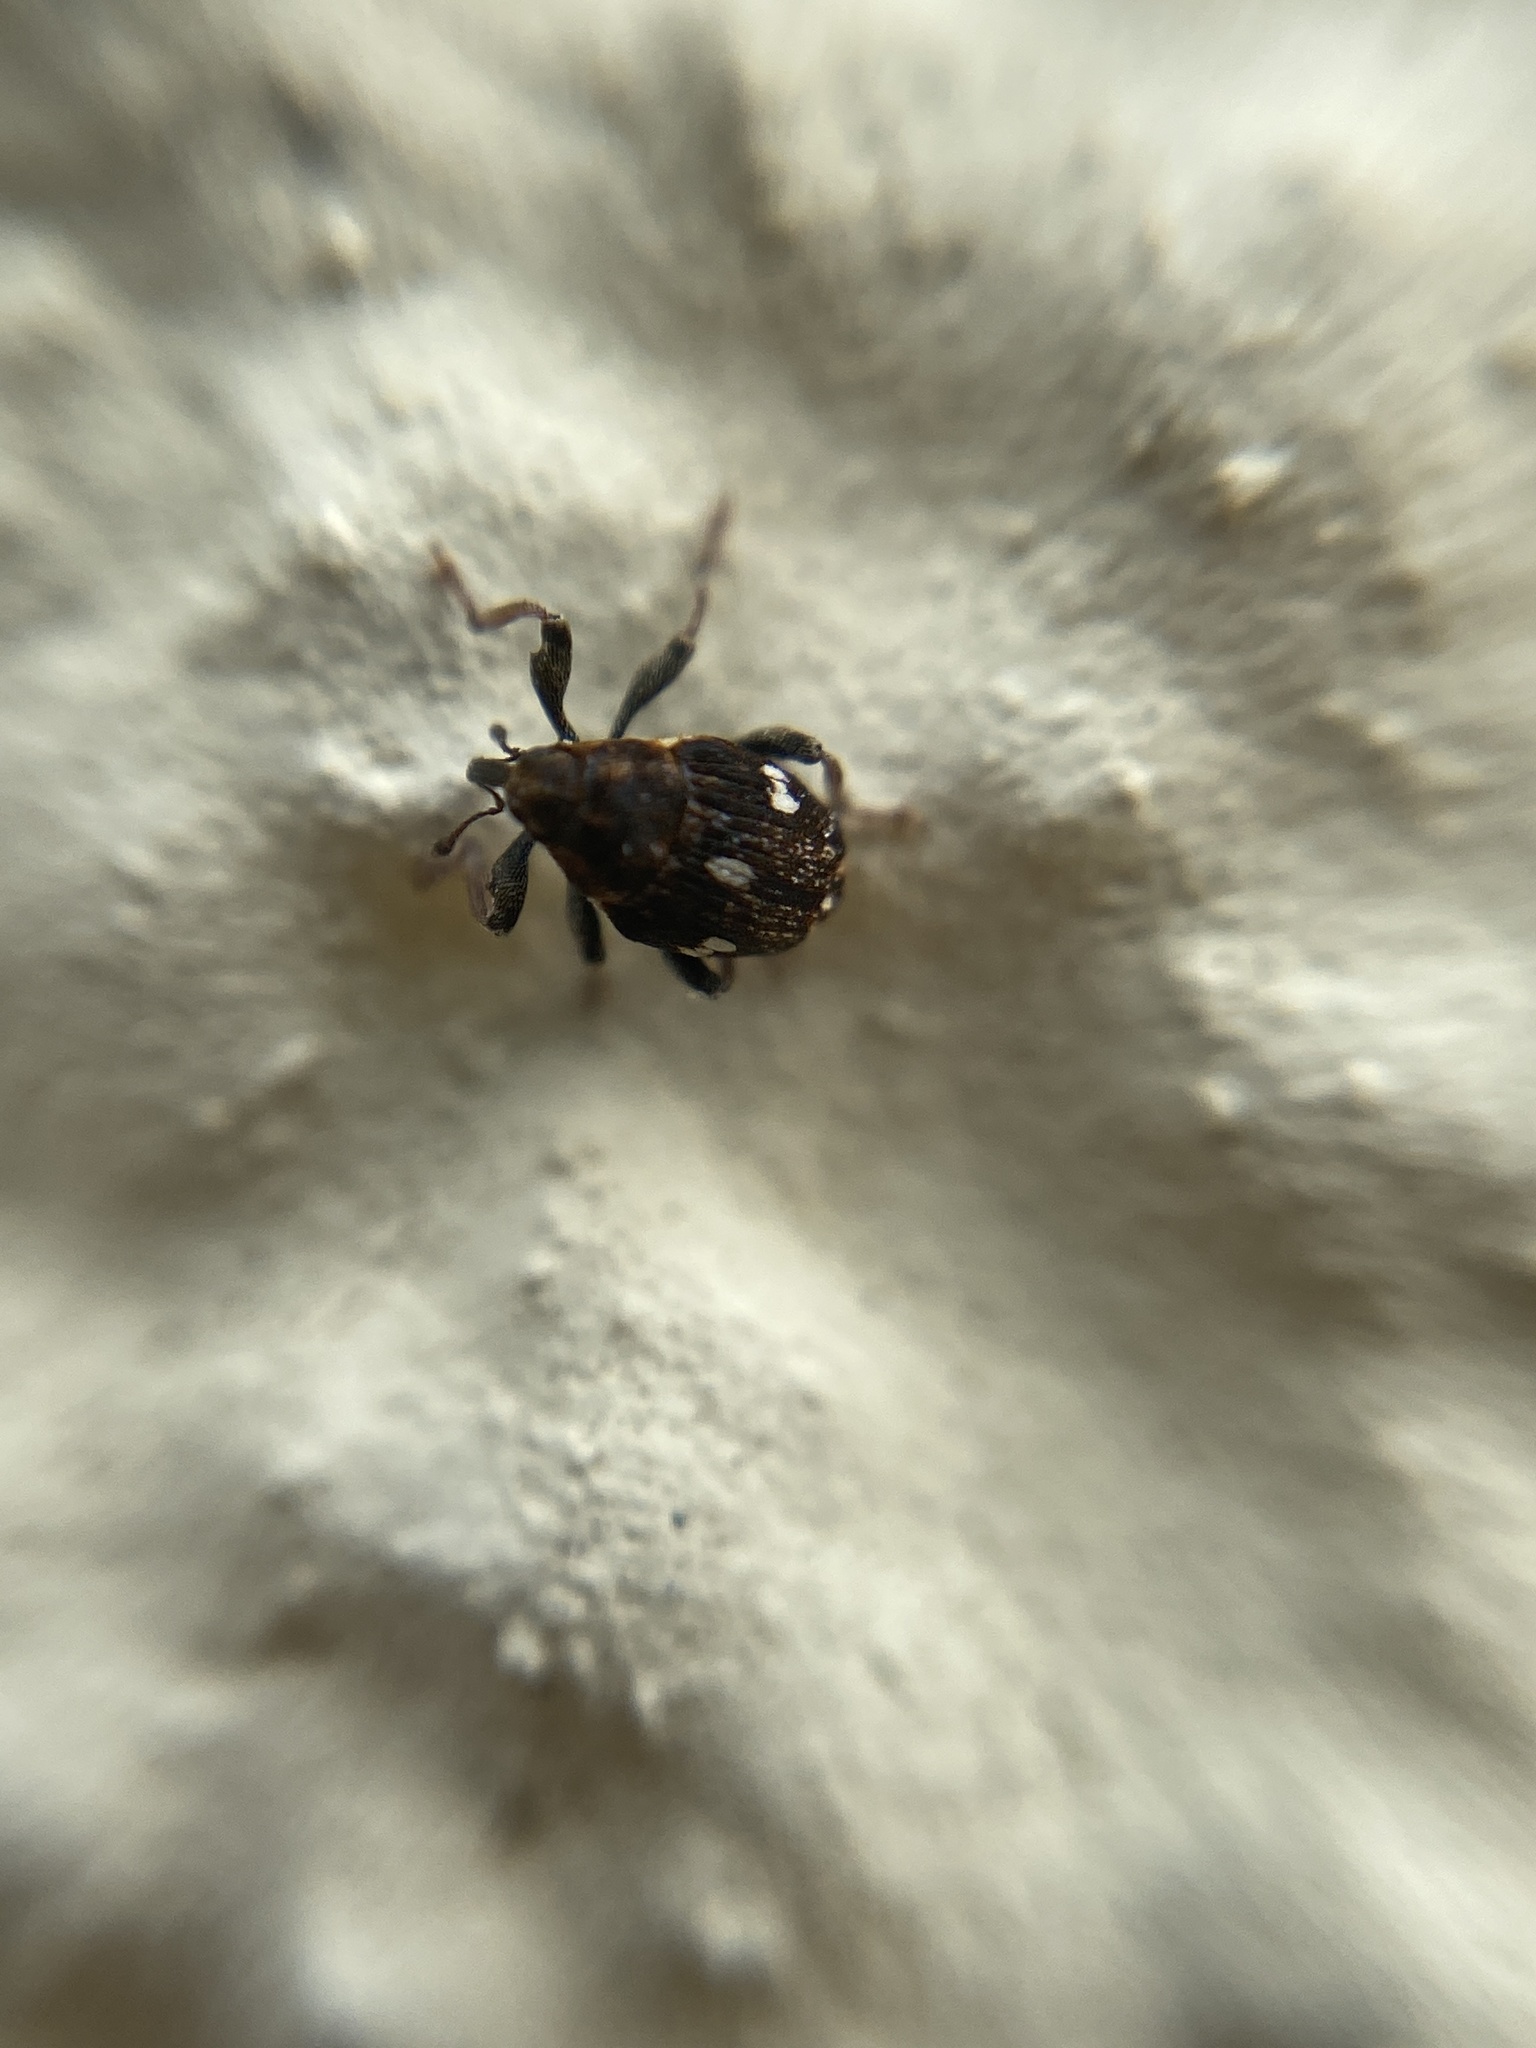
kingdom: Animalia
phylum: Arthropoda
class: Insecta
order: Coleoptera
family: Curculionidae
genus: Mogulones
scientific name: Mogulones asperifoliarum
